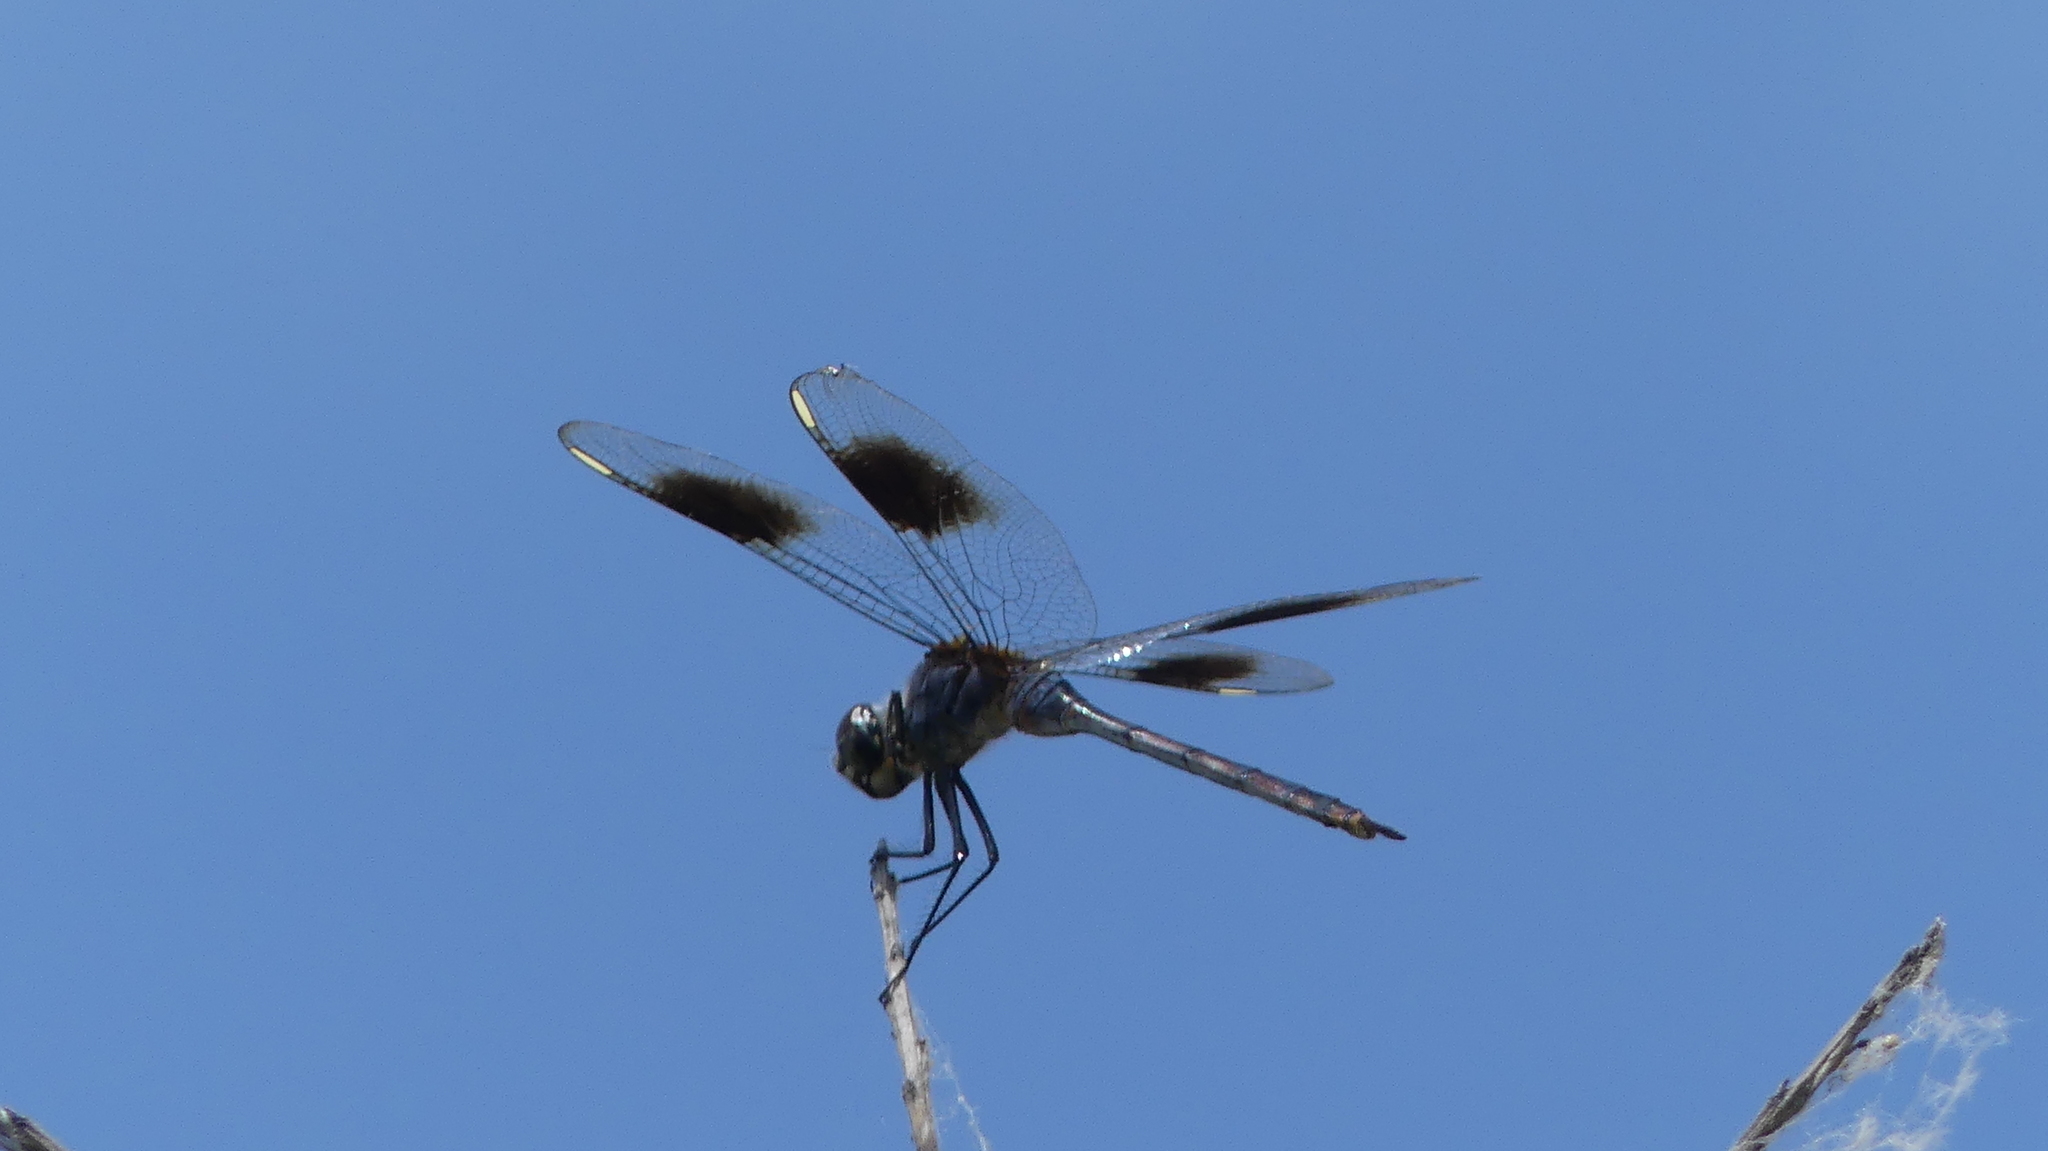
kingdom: Animalia
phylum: Arthropoda
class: Insecta
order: Odonata
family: Libellulidae
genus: Brachymesia
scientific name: Brachymesia gravida
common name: Four-spotted pennant
